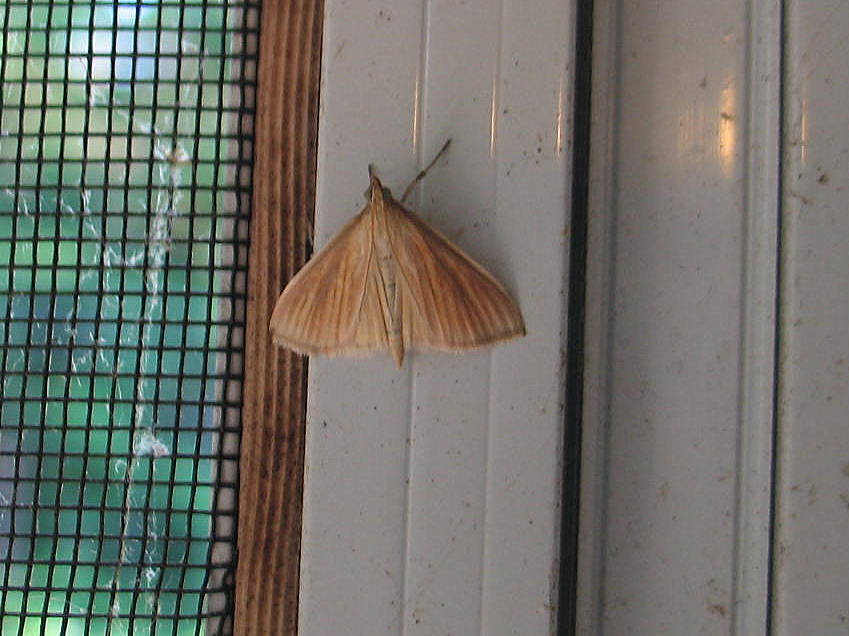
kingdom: Animalia
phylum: Arthropoda
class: Insecta
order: Lepidoptera
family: Crambidae
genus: Nascia
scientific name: Nascia acutellus
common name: Streaked orange moth
